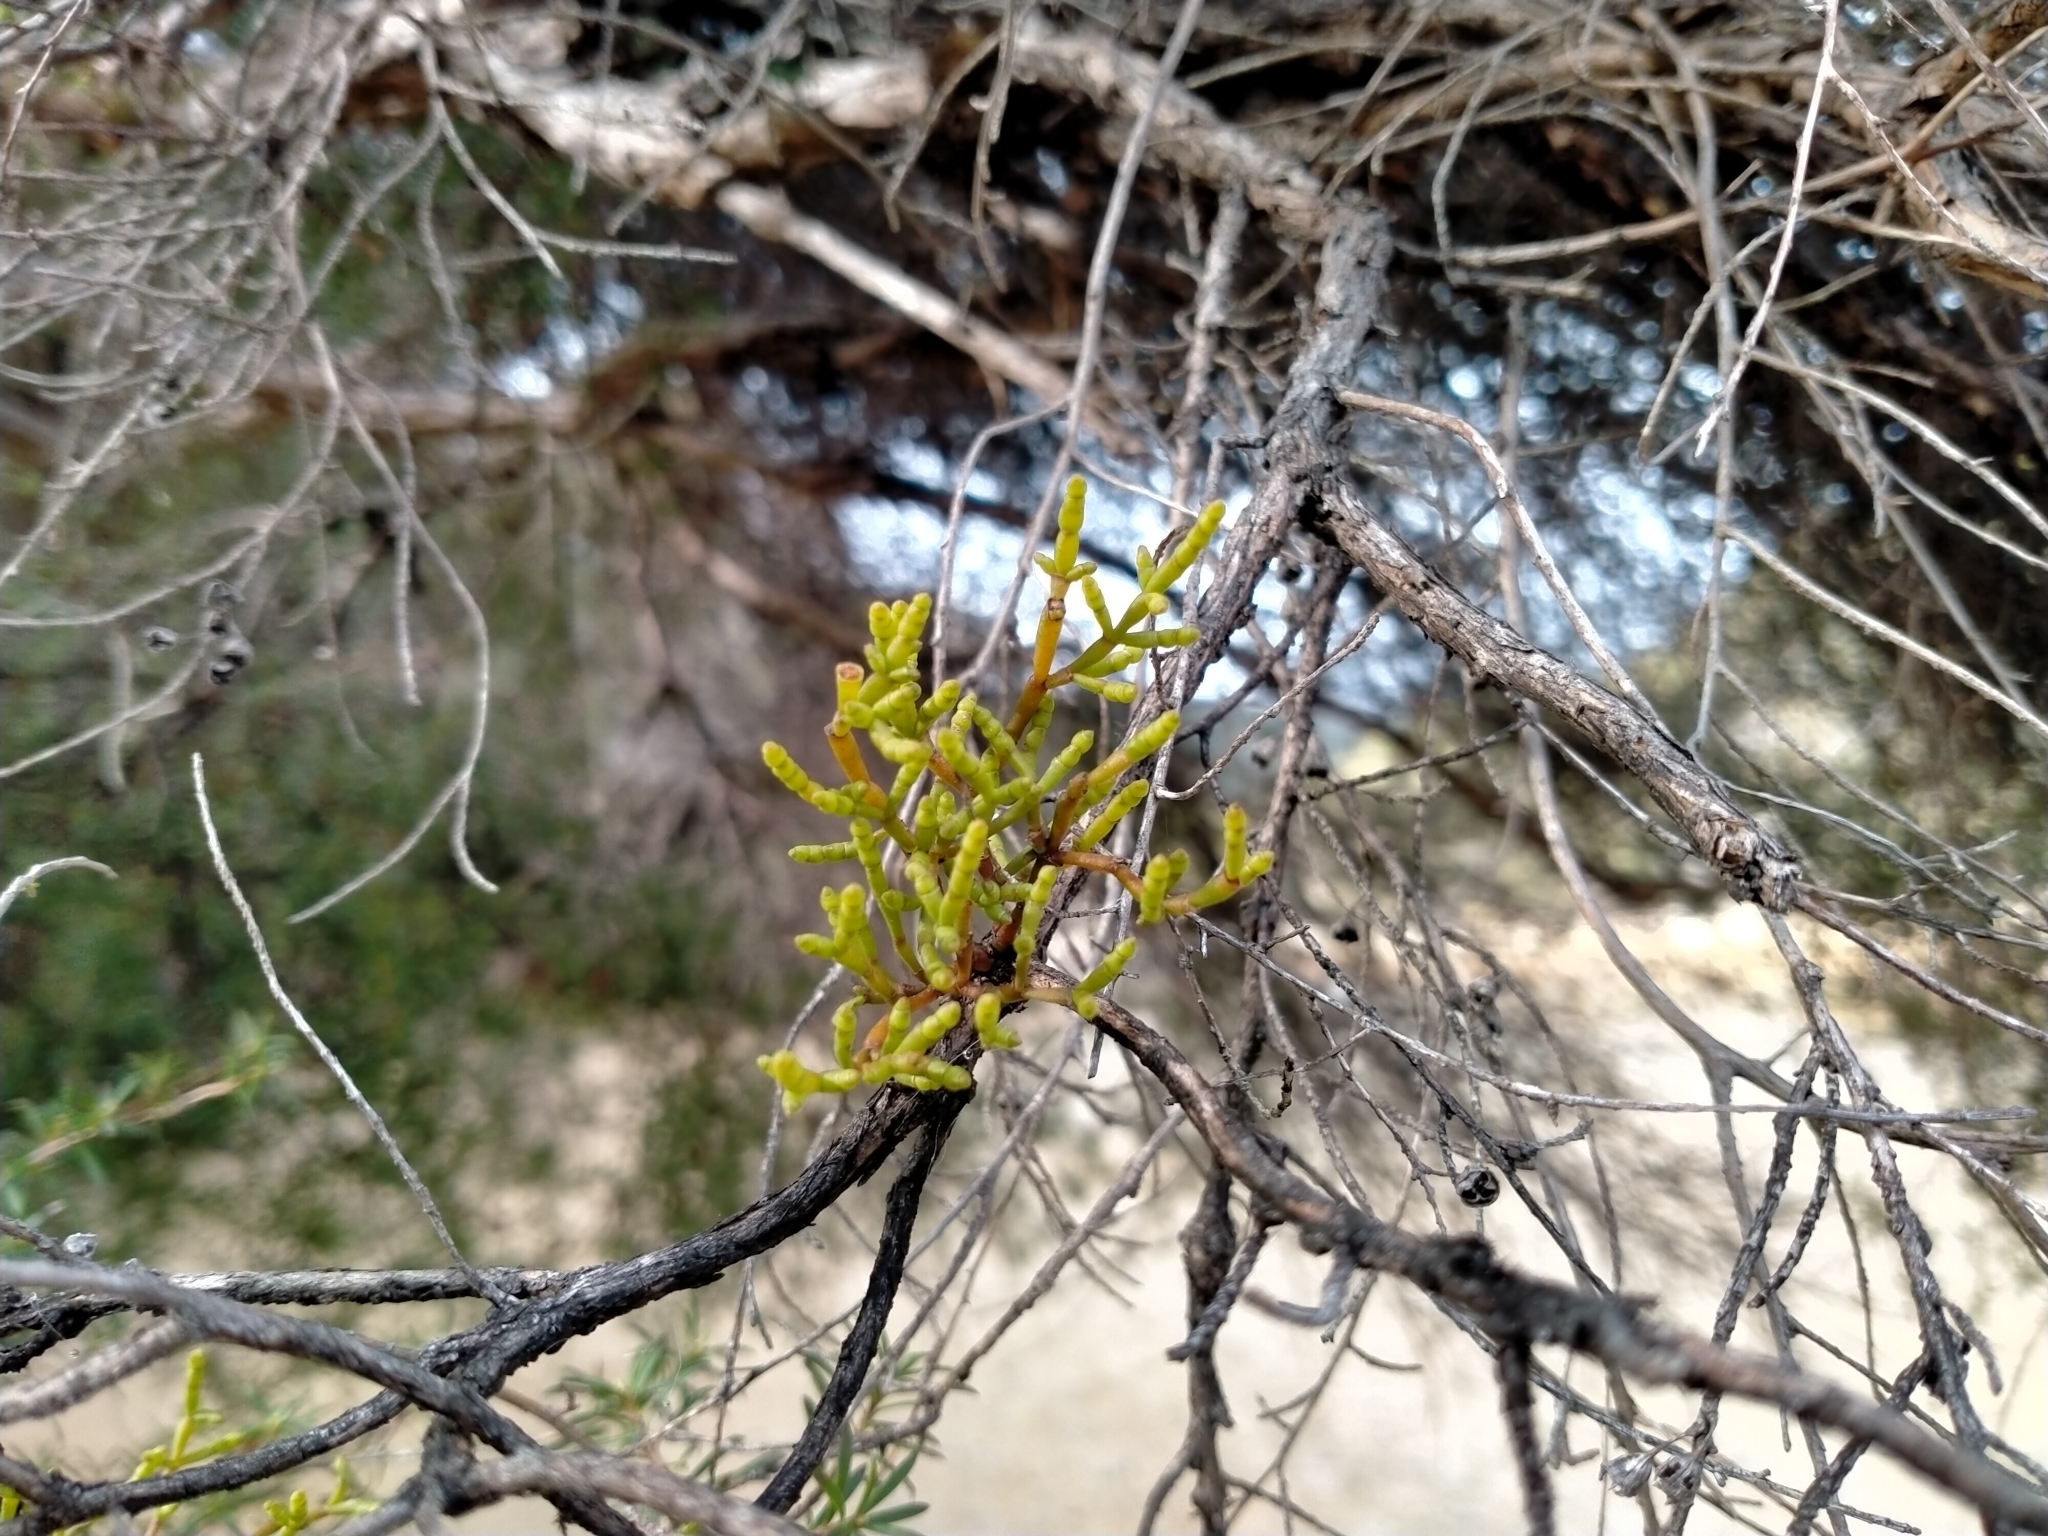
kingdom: Plantae
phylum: Tracheophyta
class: Magnoliopsida
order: Santalales
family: Viscaceae
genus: Korthalsella
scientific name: Korthalsella salicornioides
